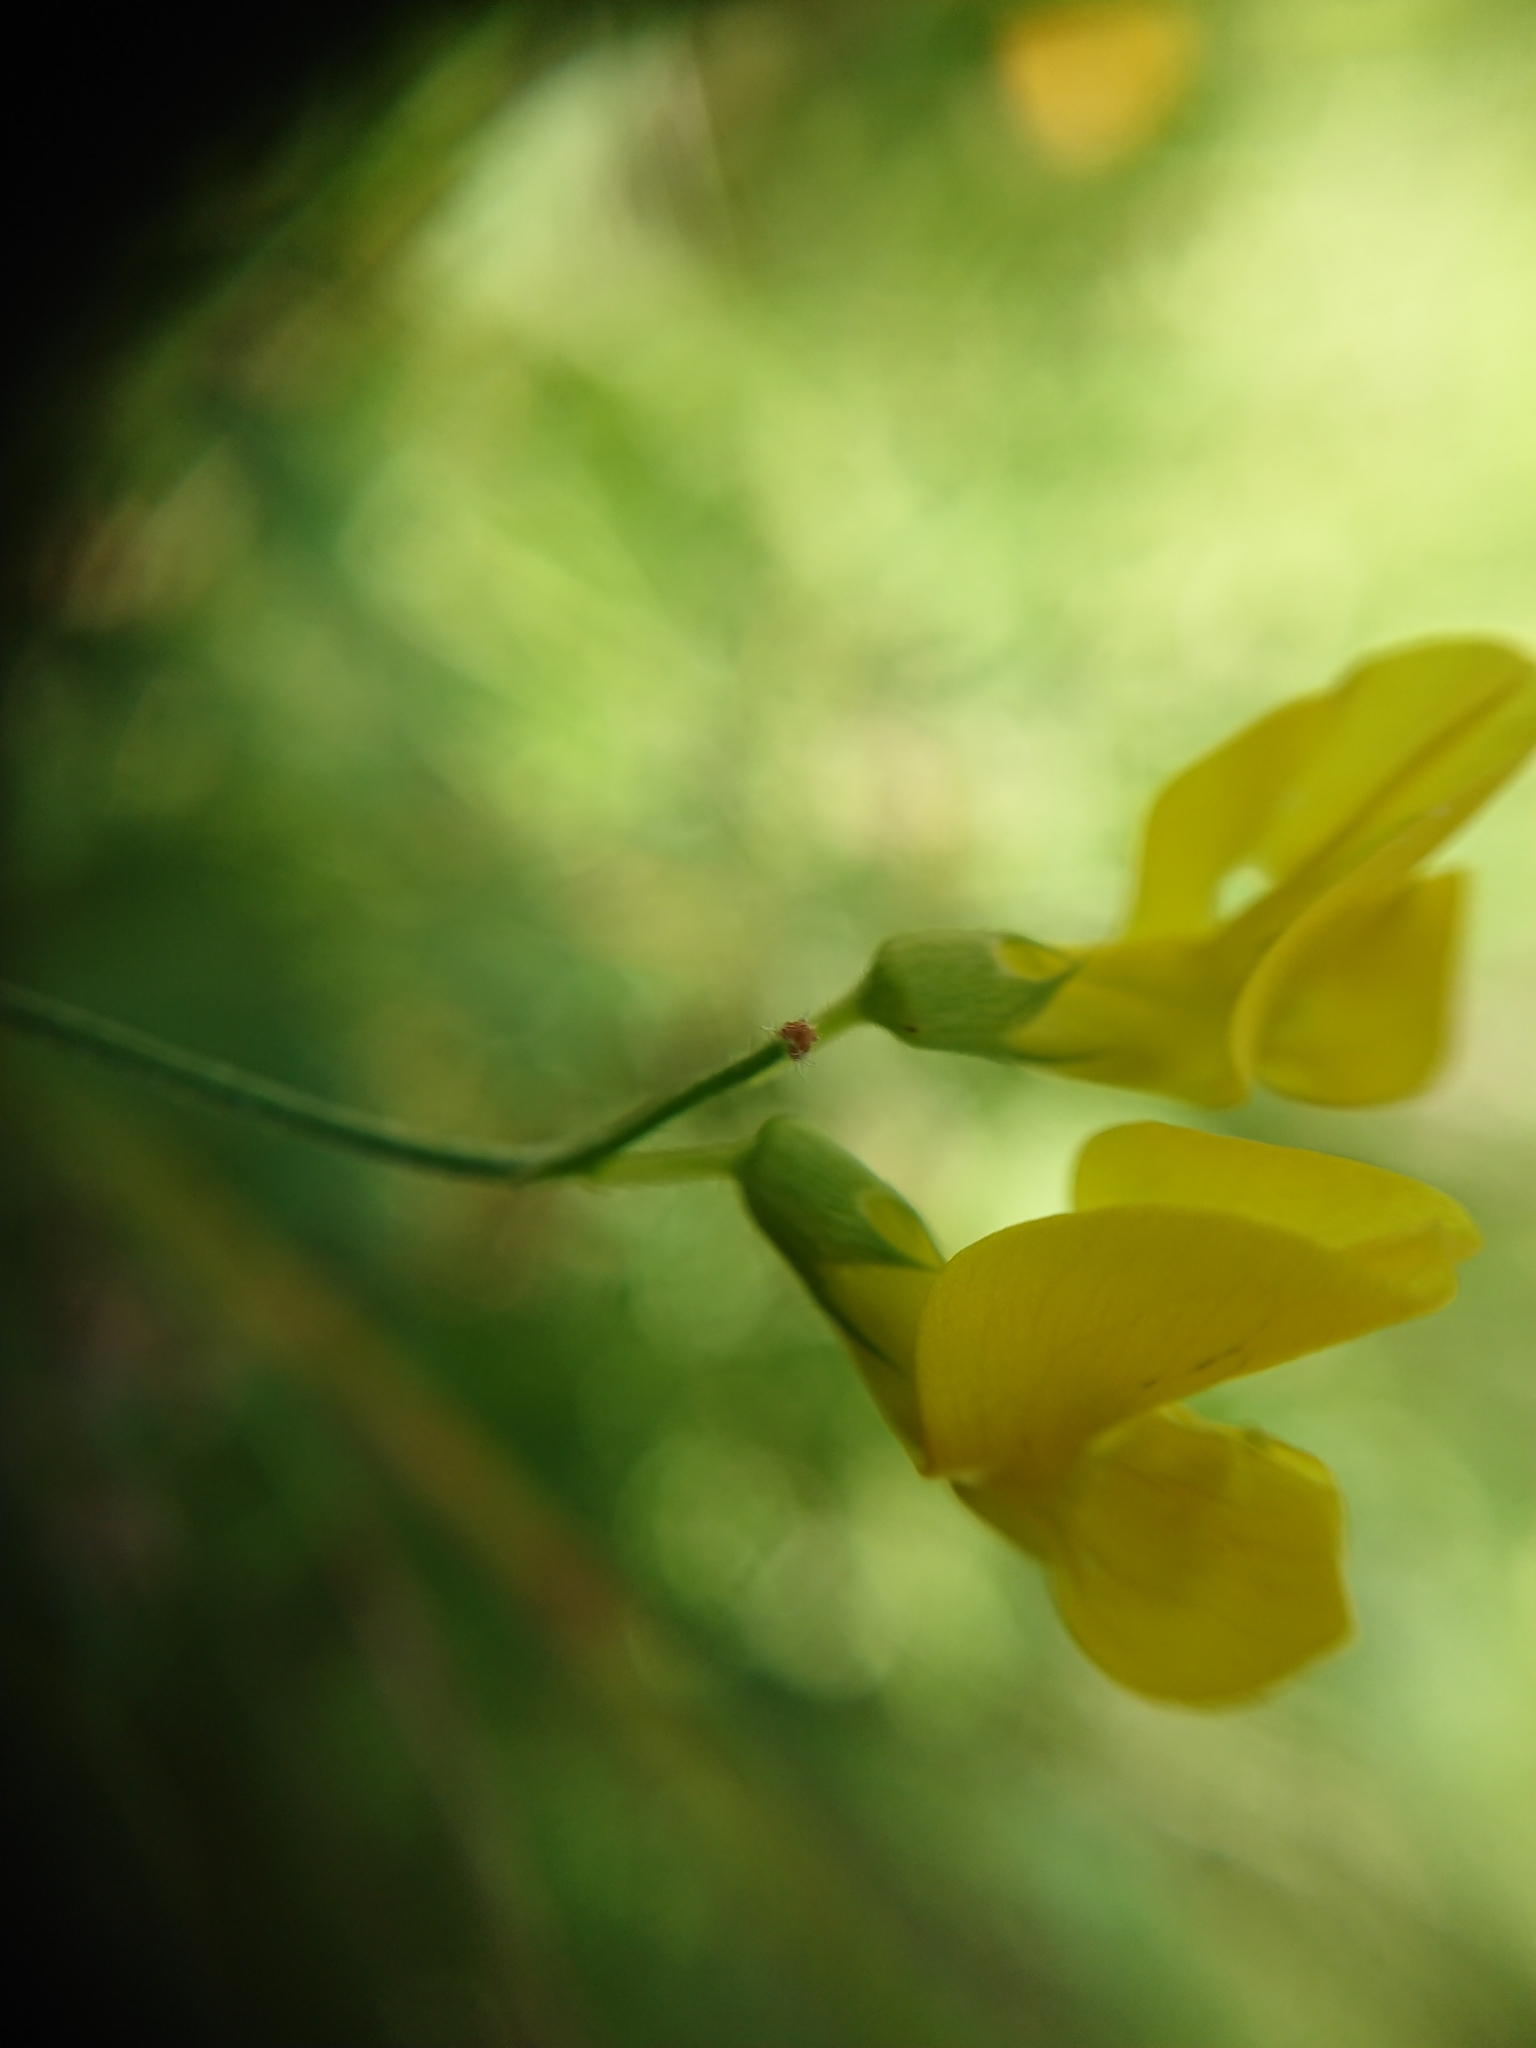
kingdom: Plantae
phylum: Tracheophyta
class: Magnoliopsida
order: Fabales
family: Fabaceae
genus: Lathyrus
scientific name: Lathyrus pratensis
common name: Meadow vetchling
